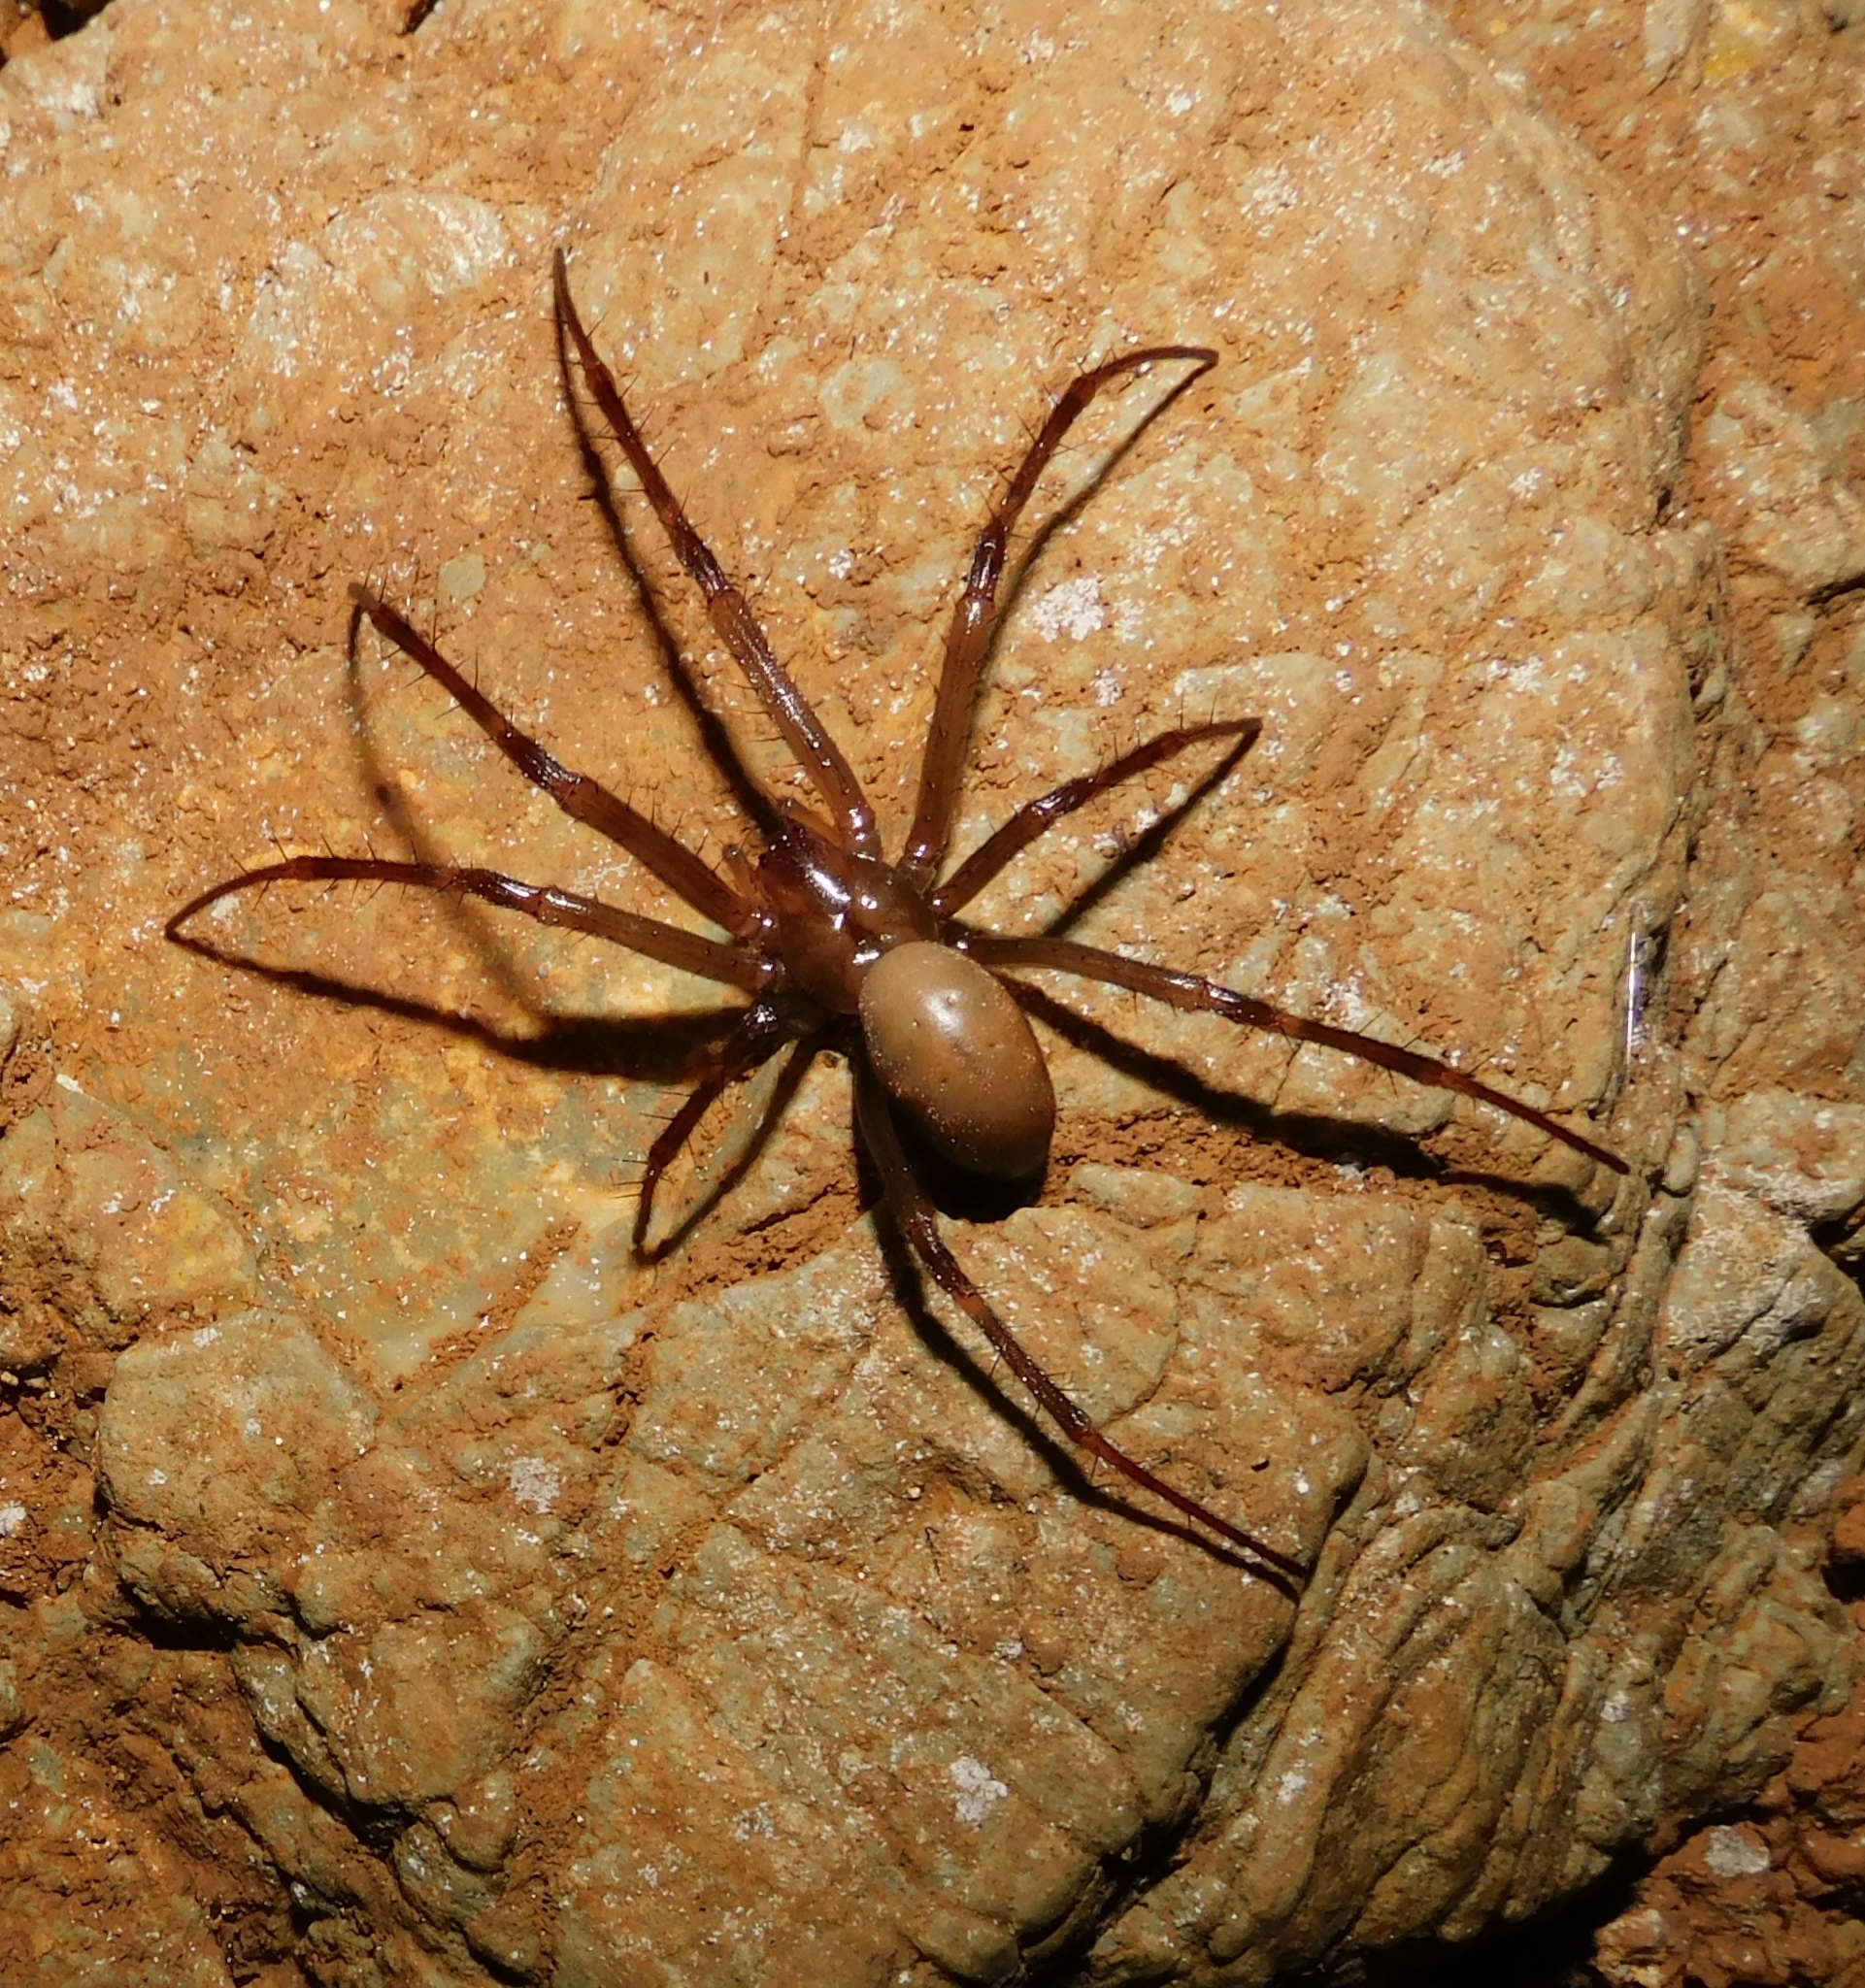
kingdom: Animalia
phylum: Arthropoda
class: Arachnida
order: Araneae
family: Tetragnathidae
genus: Meta
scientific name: Meta bourneti
